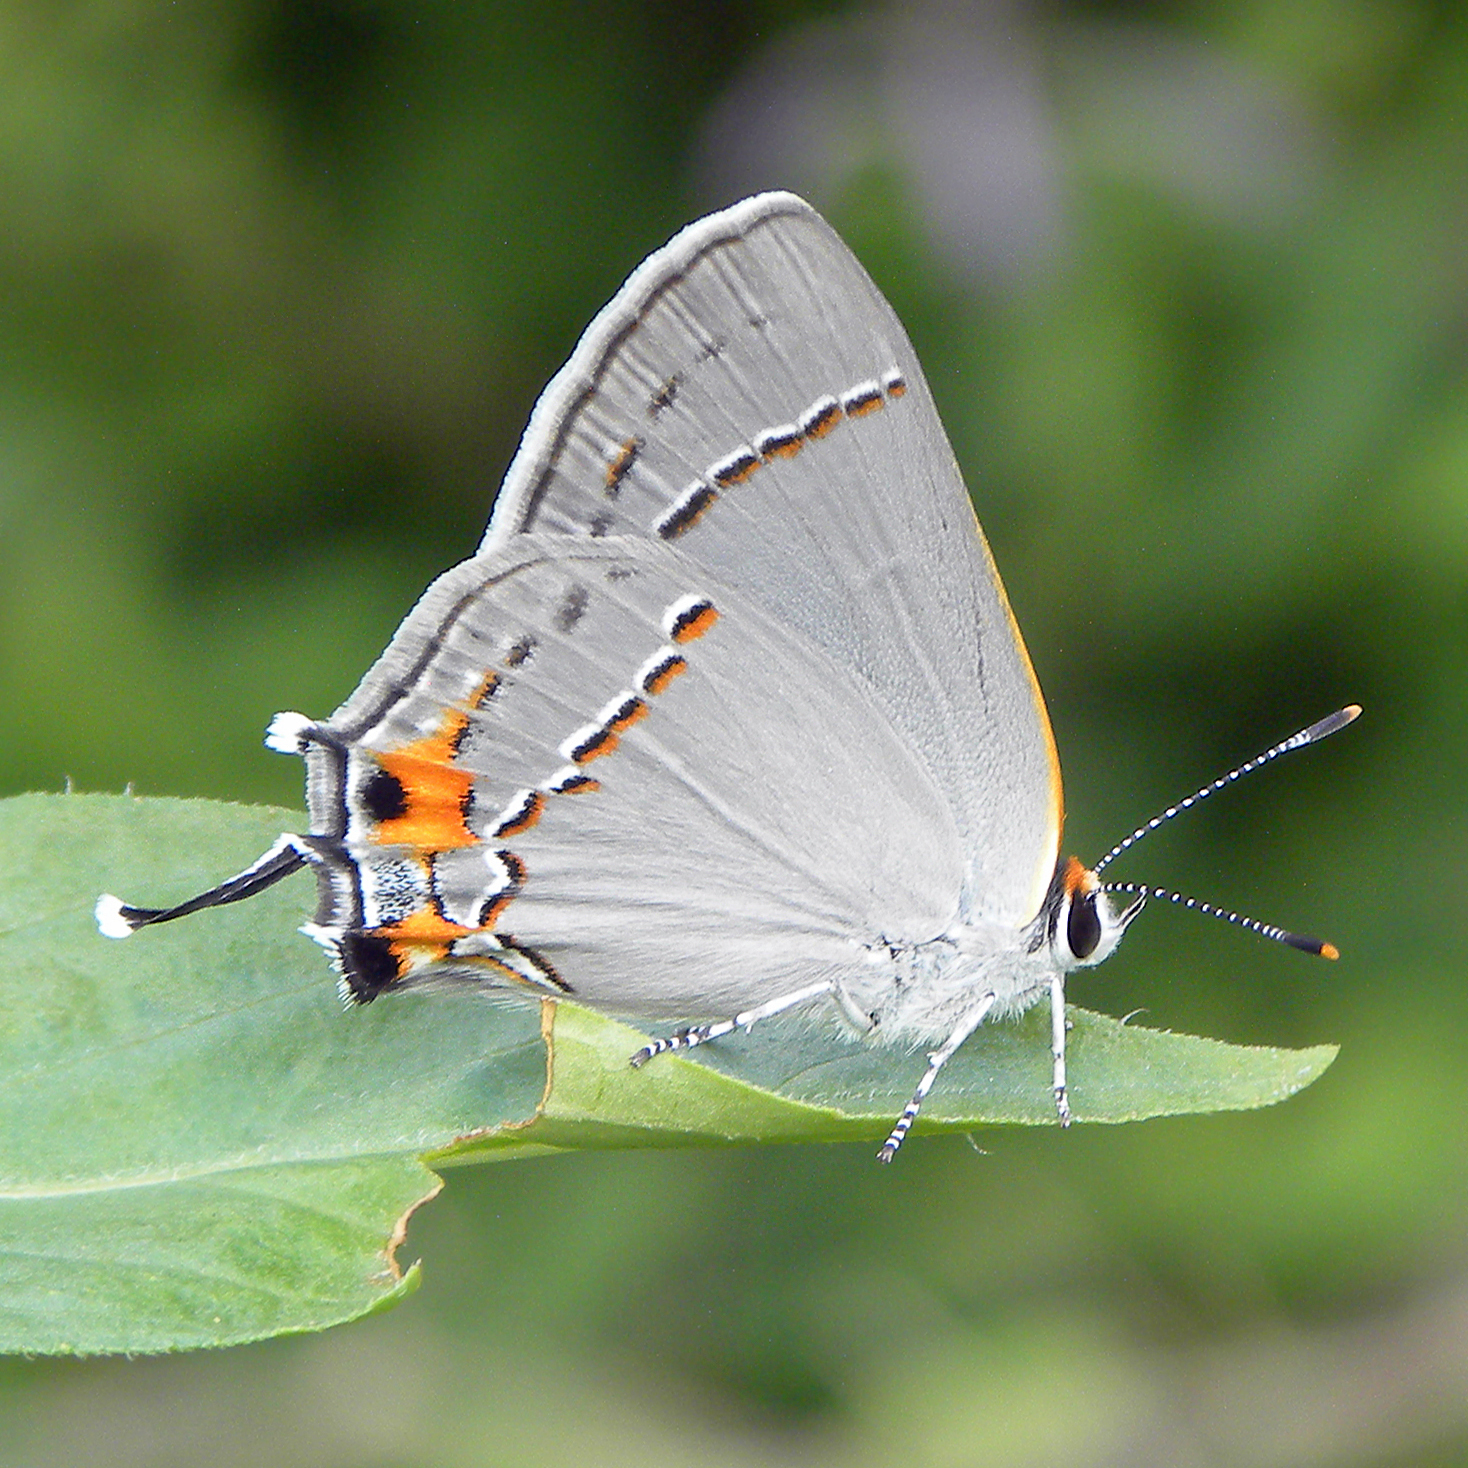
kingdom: Animalia
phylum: Arthropoda
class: Insecta
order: Lepidoptera
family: Lycaenidae
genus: Strymon
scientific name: Strymon melinus
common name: Gray hairstreak
